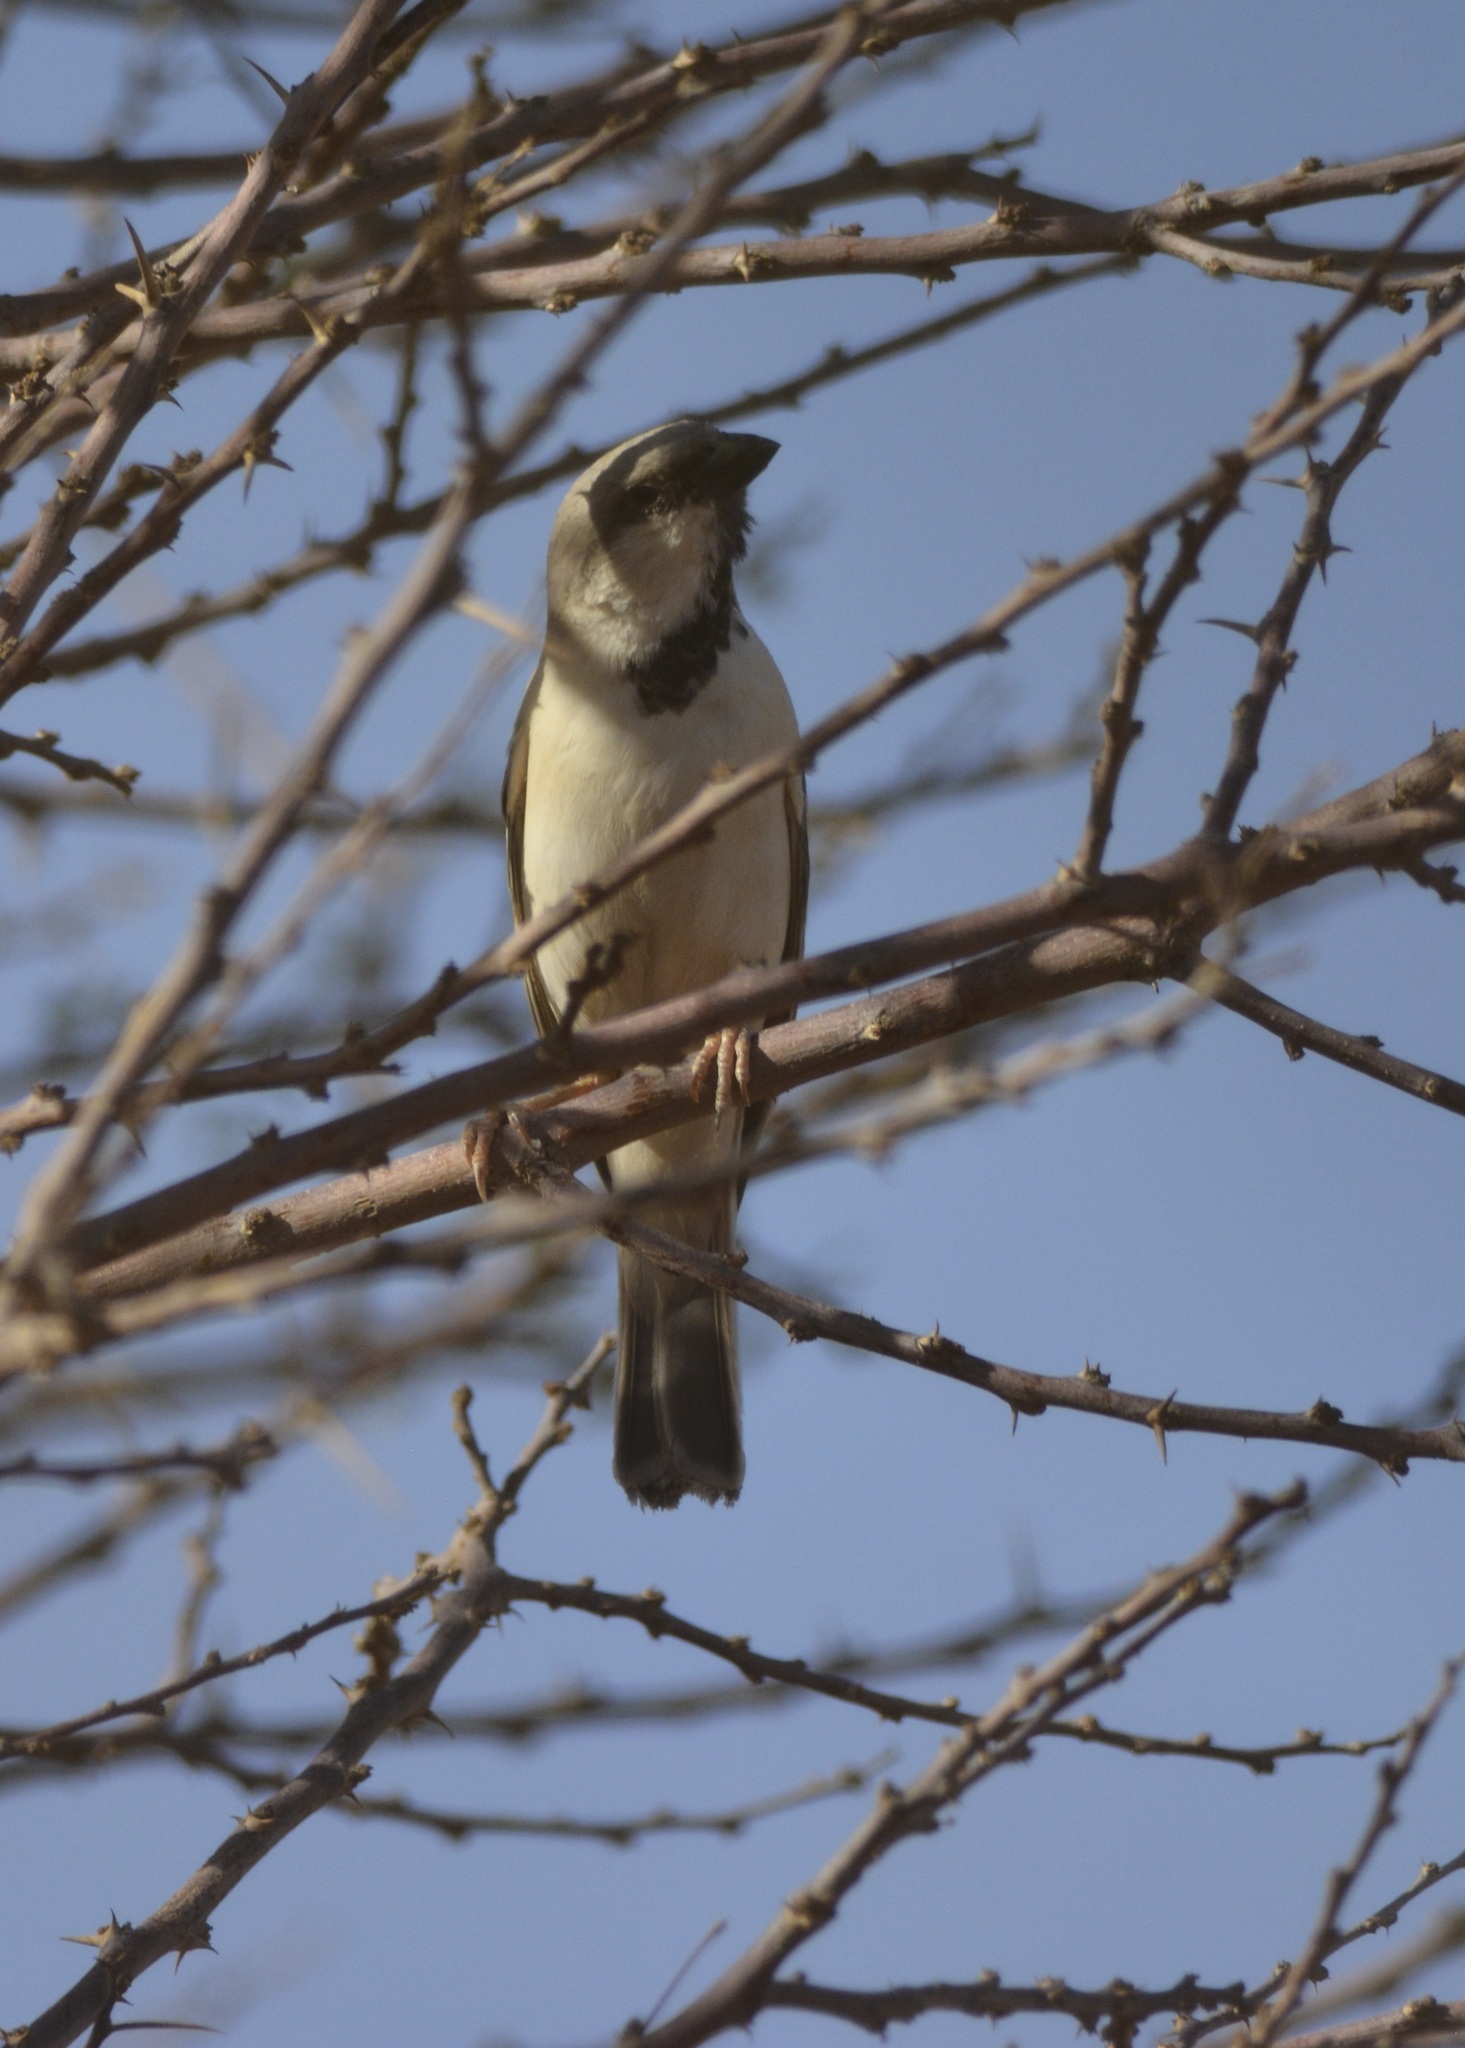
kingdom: Animalia
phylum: Chordata
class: Aves
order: Passeriformes
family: Passeridae
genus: Passer
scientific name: Passer simplex
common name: Desert sparrow
